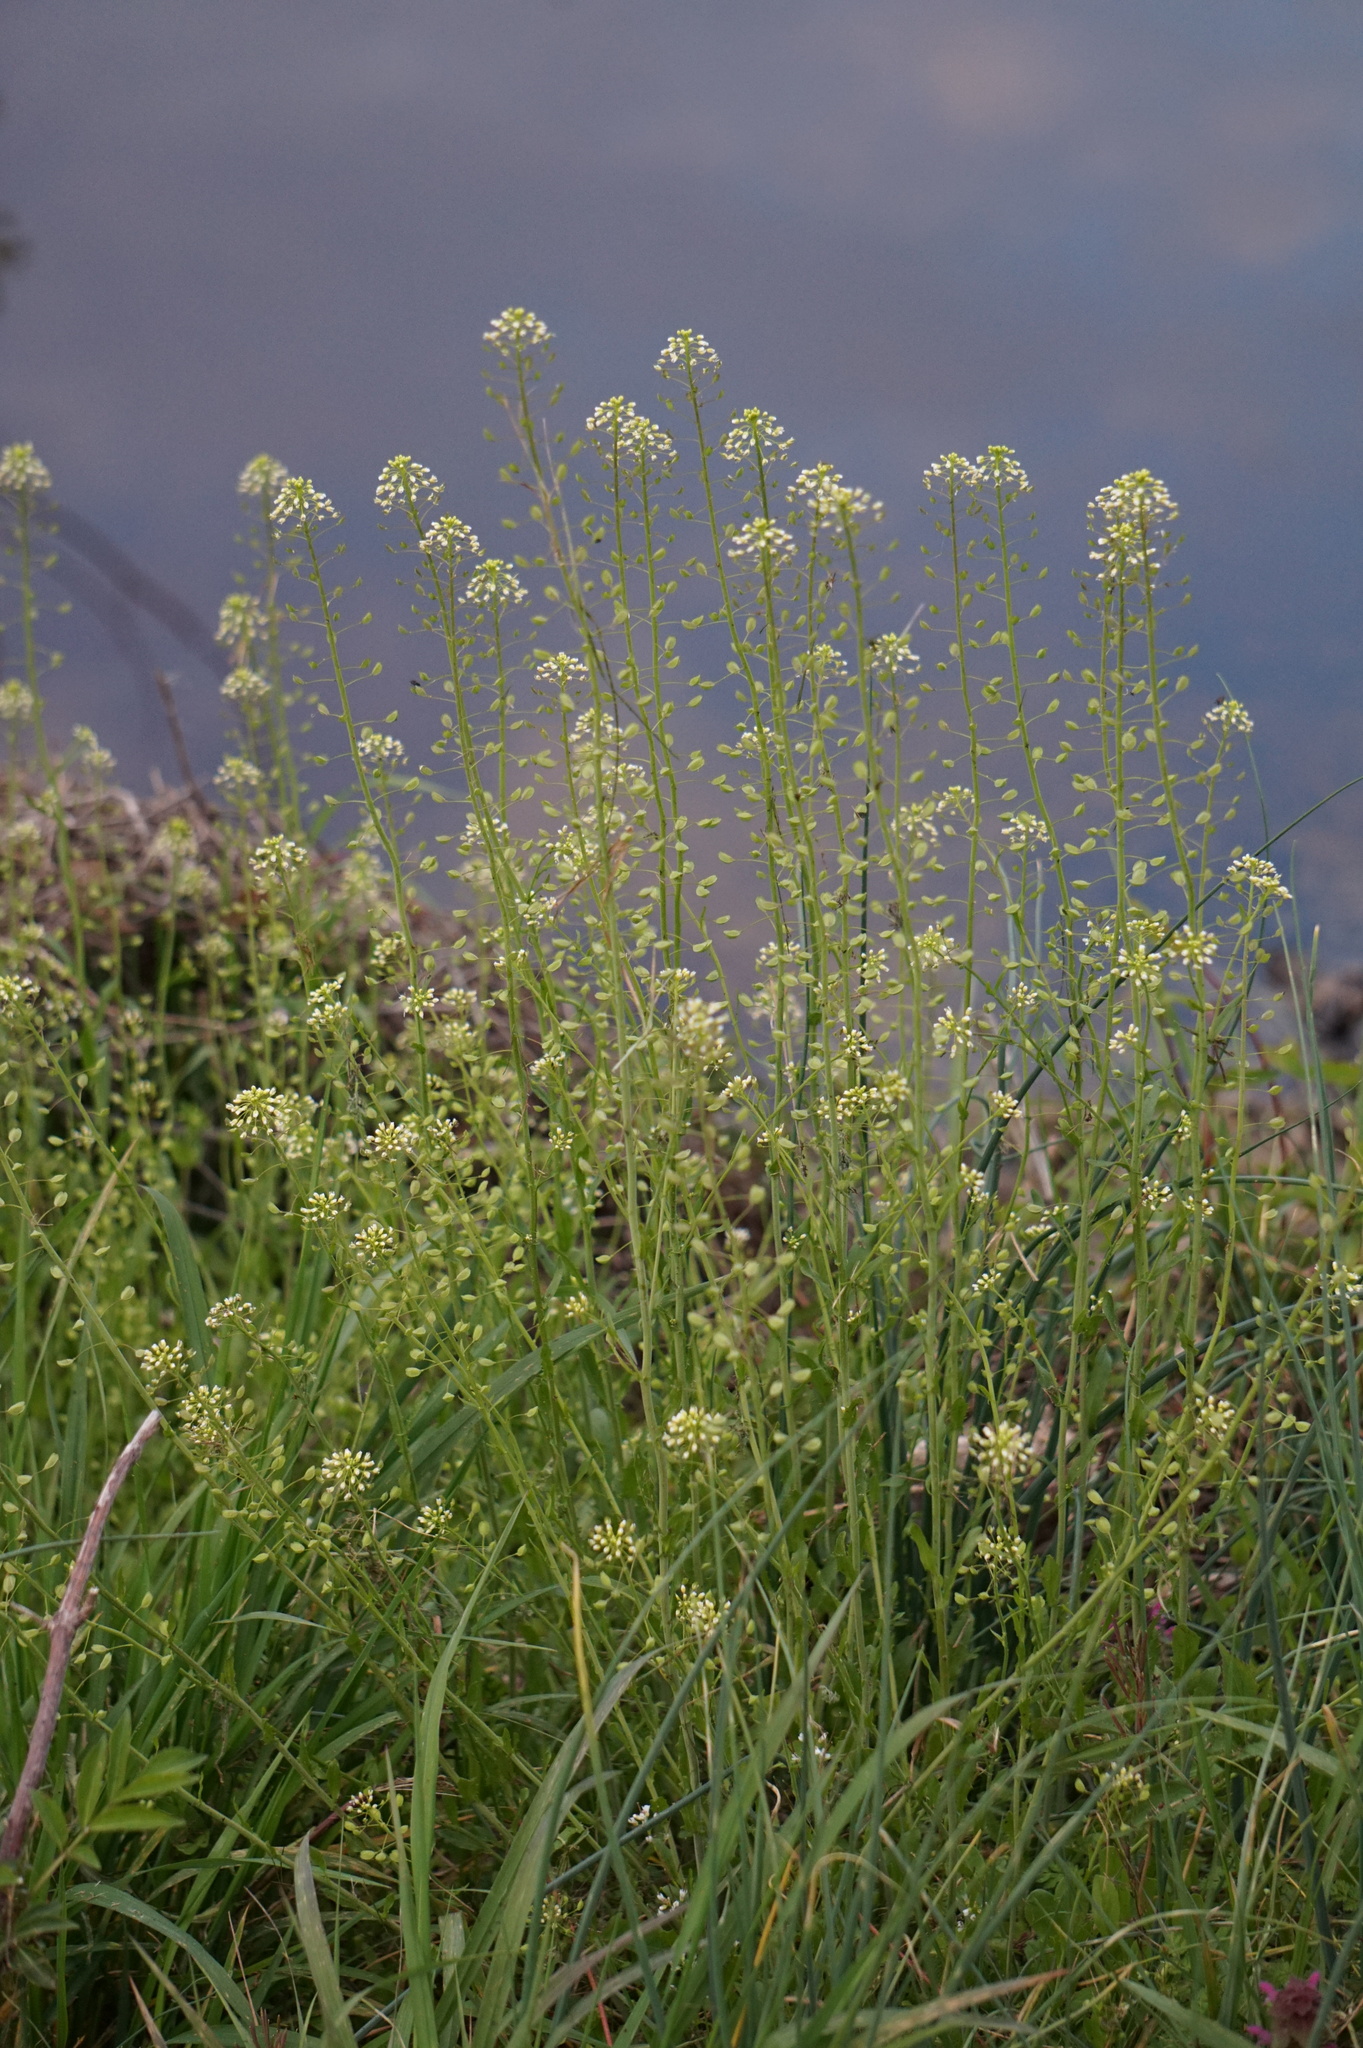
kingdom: Plantae
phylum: Tracheophyta
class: Magnoliopsida
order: Brassicales
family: Brassicaceae
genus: Mummenhoffia
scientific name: Mummenhoffia alliacea
